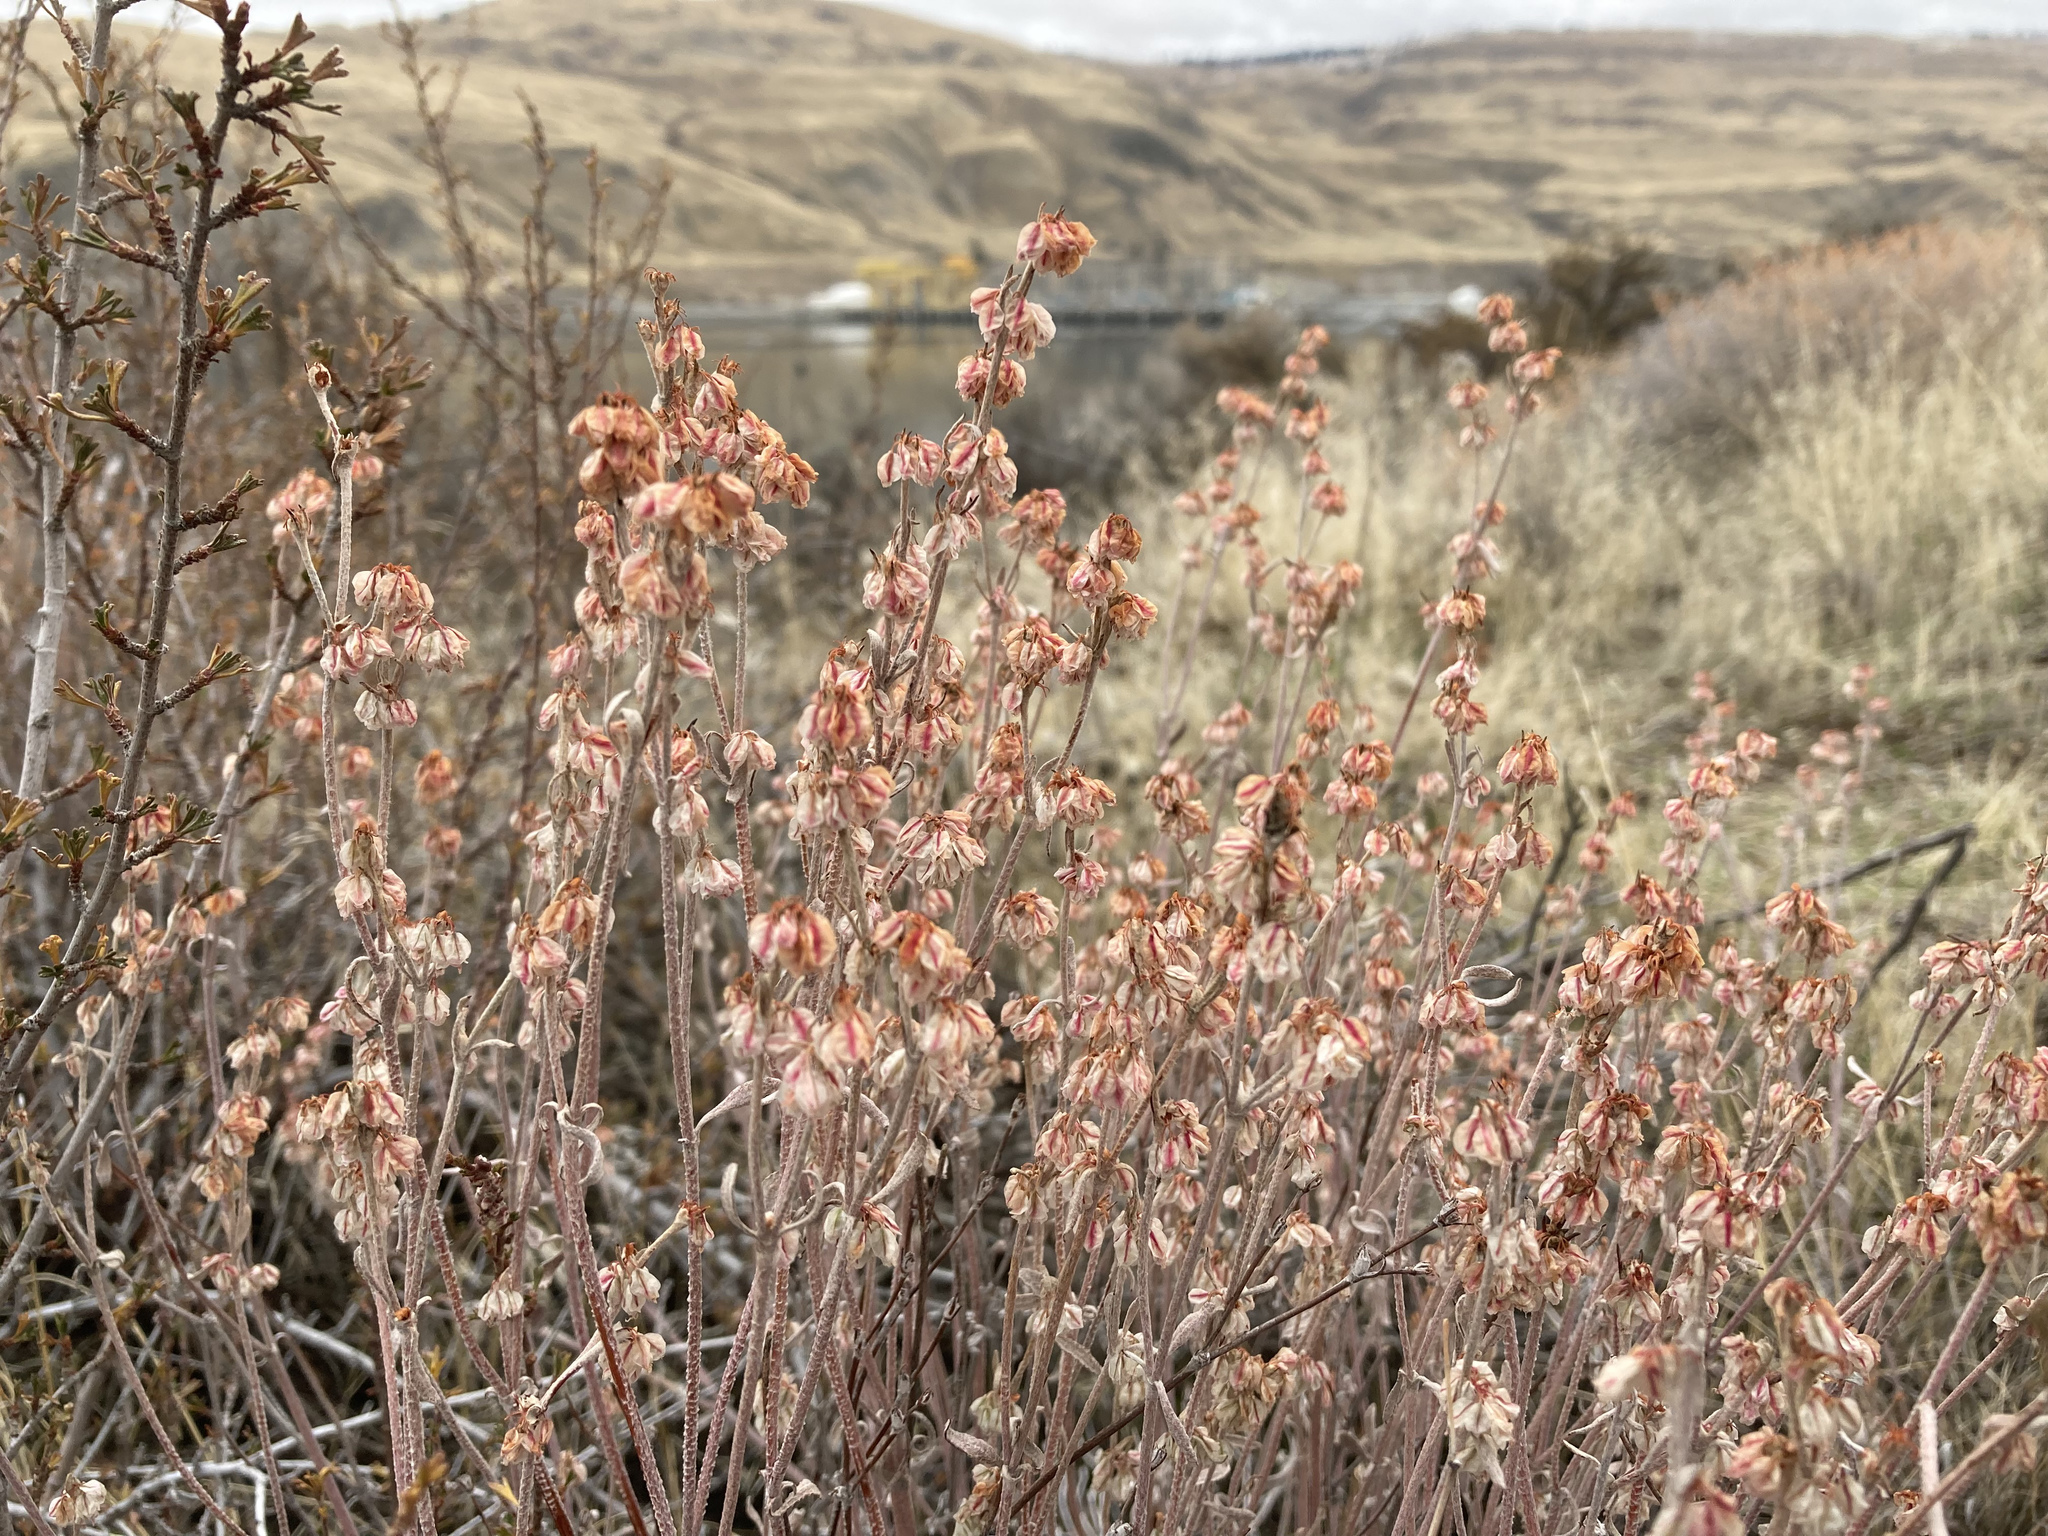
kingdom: Plantae
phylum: Tracheophyta
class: Magnoliopsida
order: Caryophyllales
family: Polygonaceae
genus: Eriogonum
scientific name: Eriogonum niveum
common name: Snow wild buckwheat
